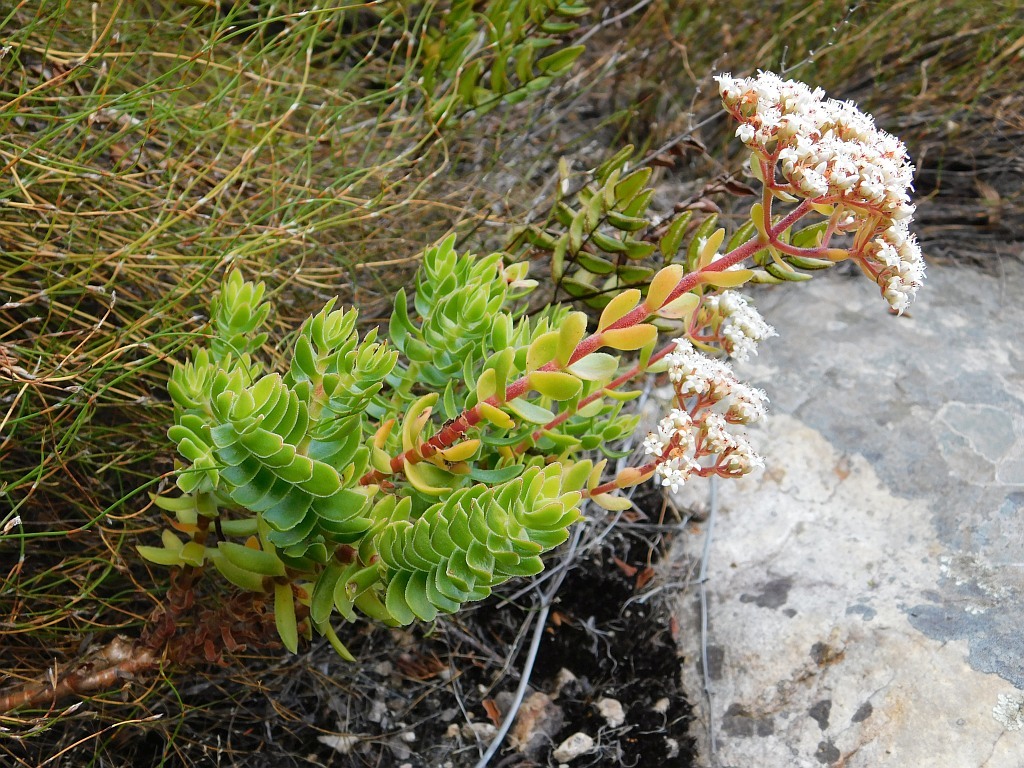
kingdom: Plantae
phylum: Tracheophyta
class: Magnoliopsida
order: Saxifragales
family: Crassulaceae
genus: Crassula
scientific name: Crassula undulata
